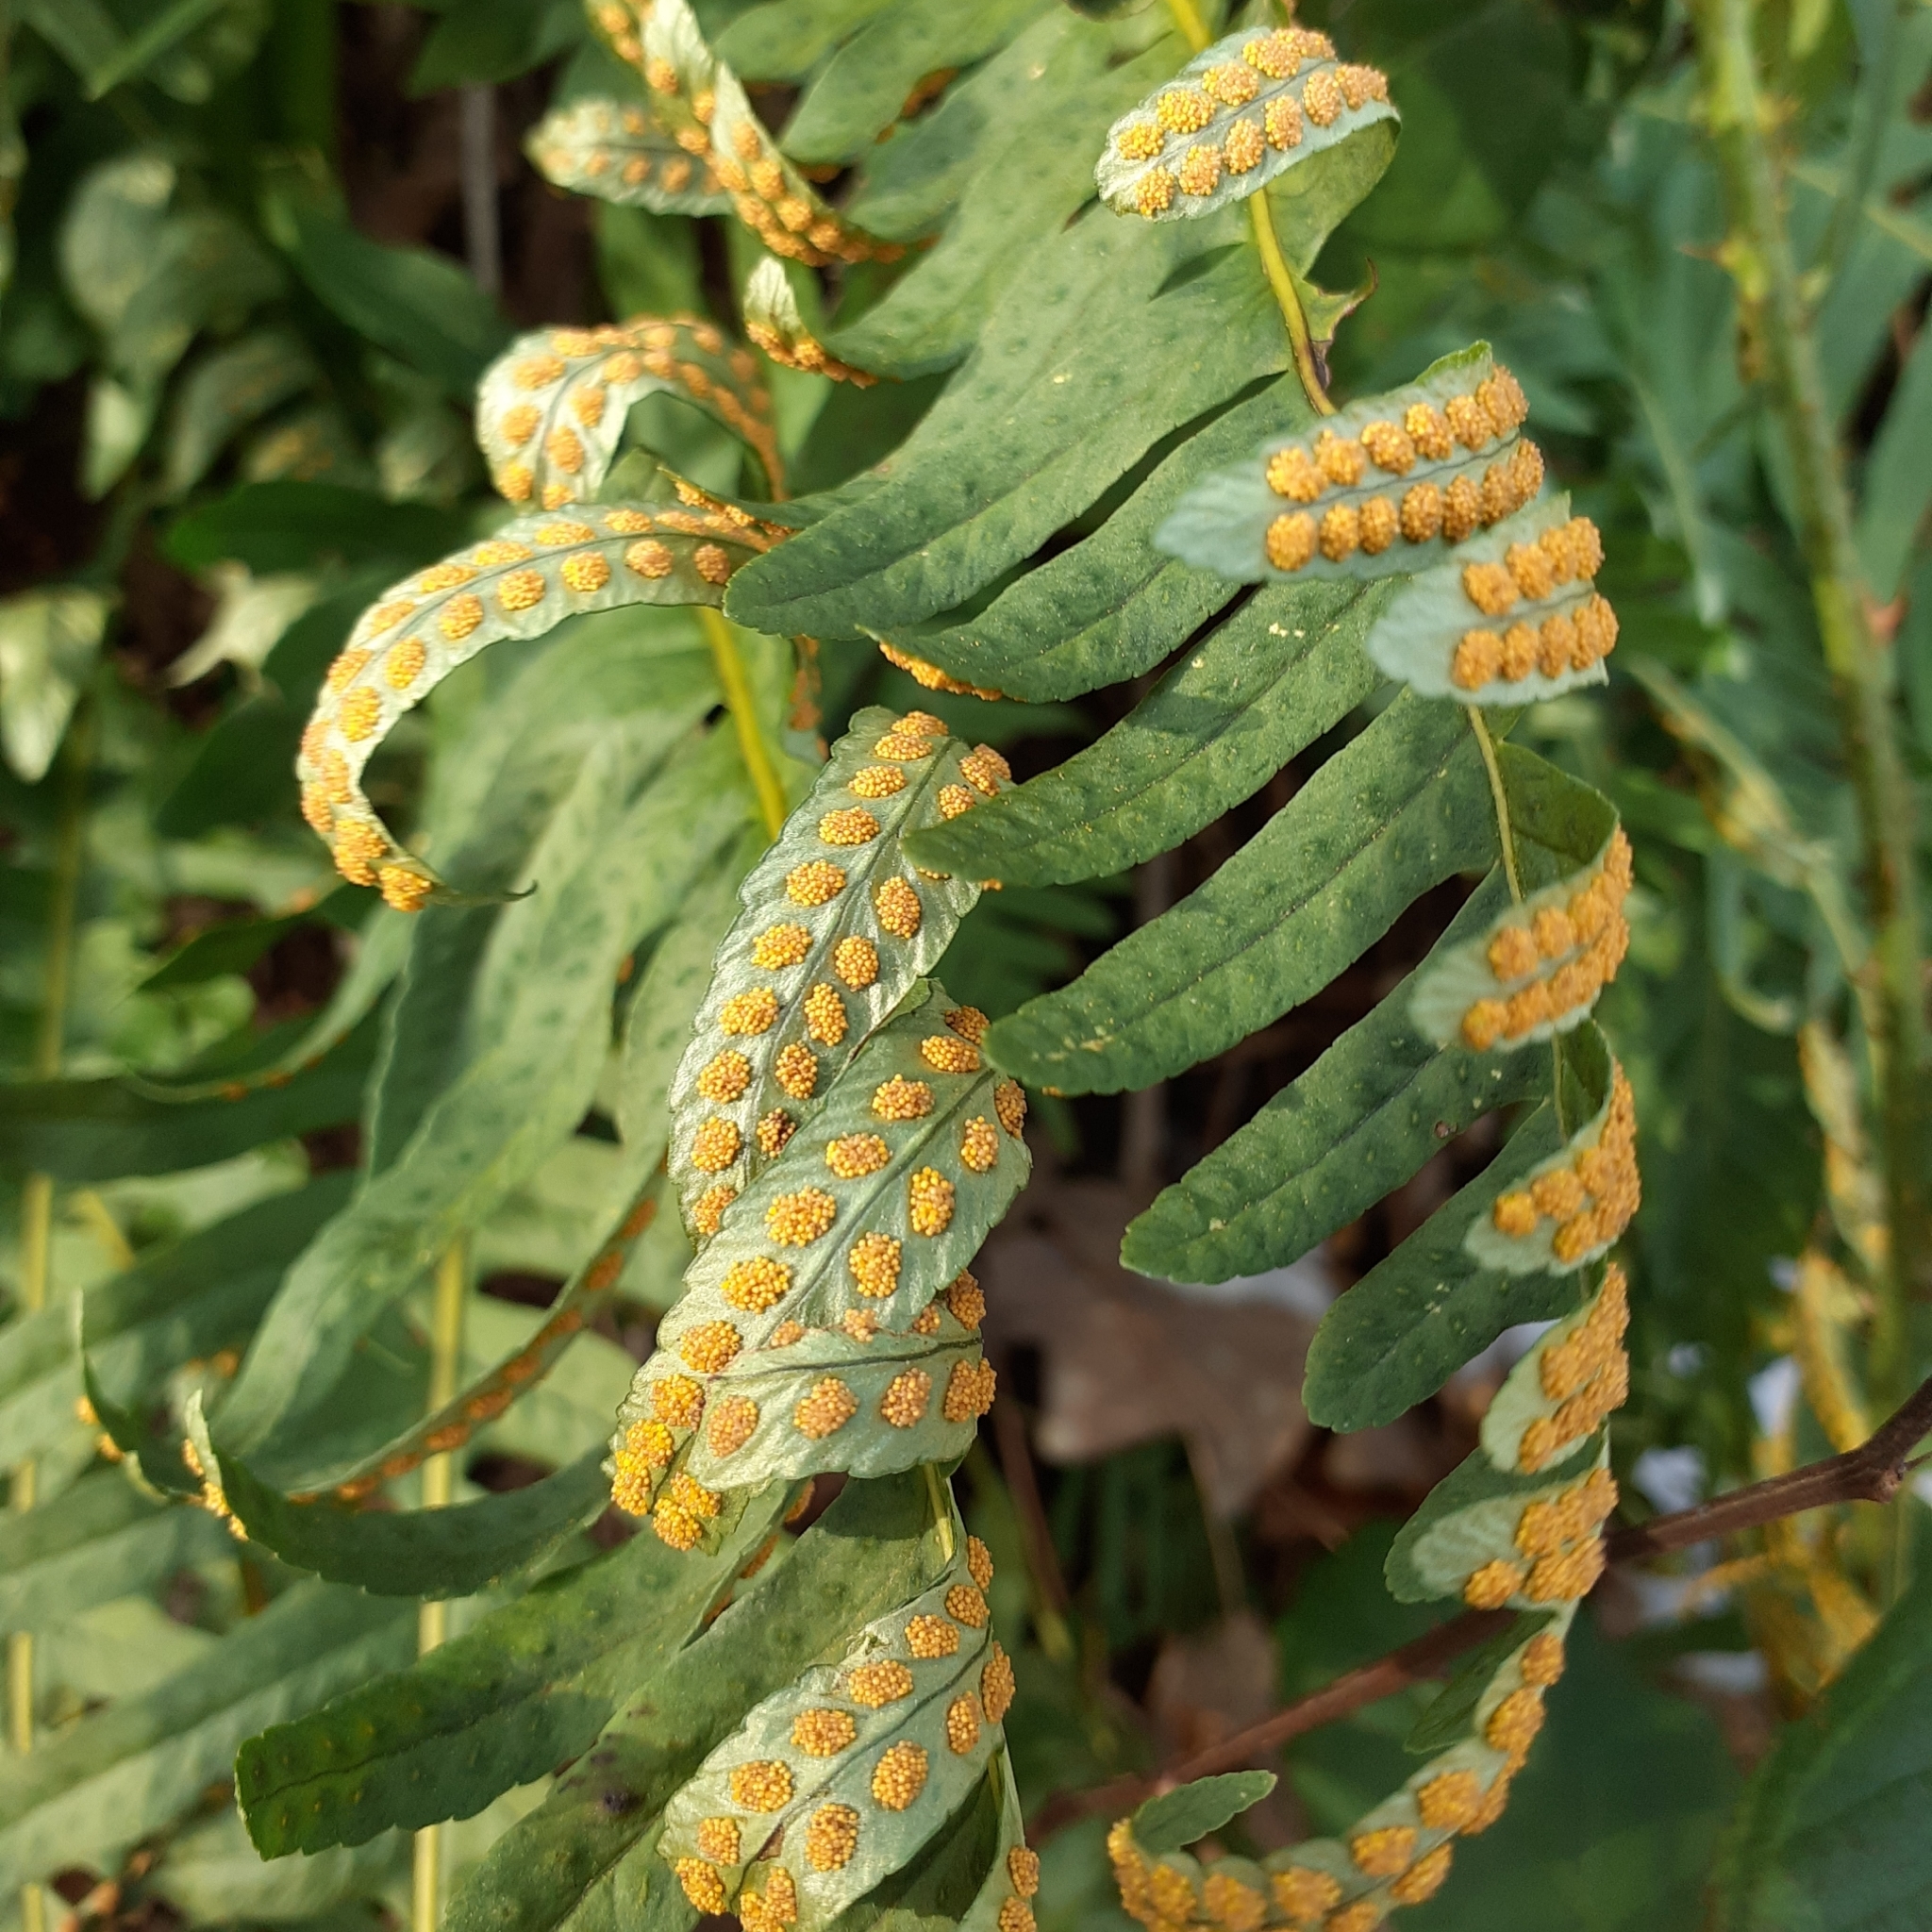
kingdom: Plantae
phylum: Tracheophyta
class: Polypodiopsida
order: Polypodiales
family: Polypodiaceae
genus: Polypodium
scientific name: Polypodium vulgare
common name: Common polypody
